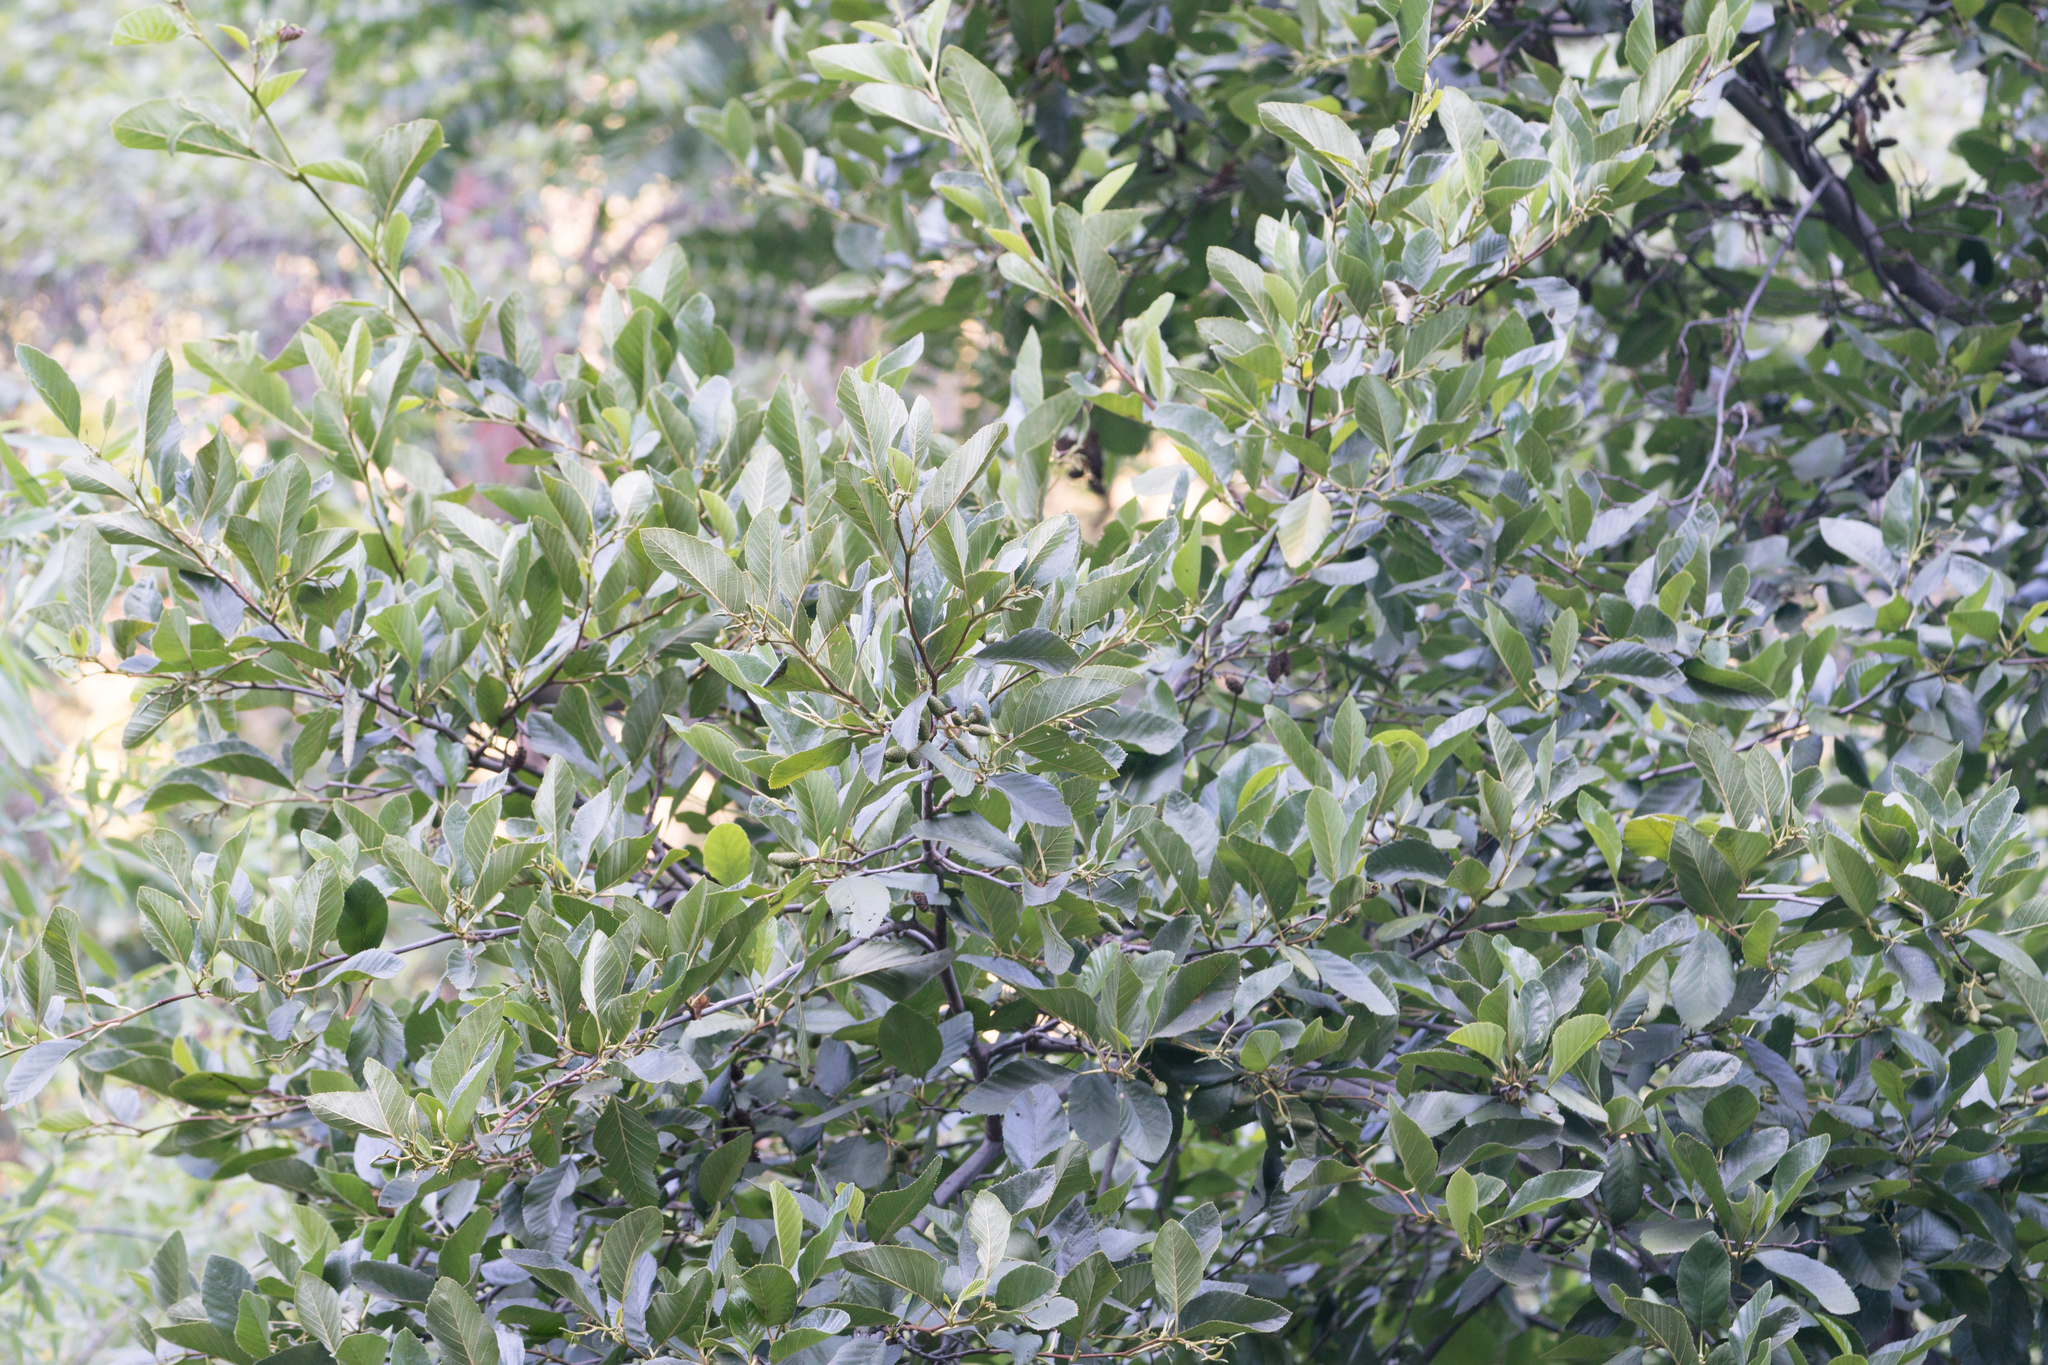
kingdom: Plantae
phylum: Tracheophyta
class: Magnoliopsida
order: Fagales
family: Betulaceae
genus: Alnus
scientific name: Alnus rhombifolia
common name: California alder
